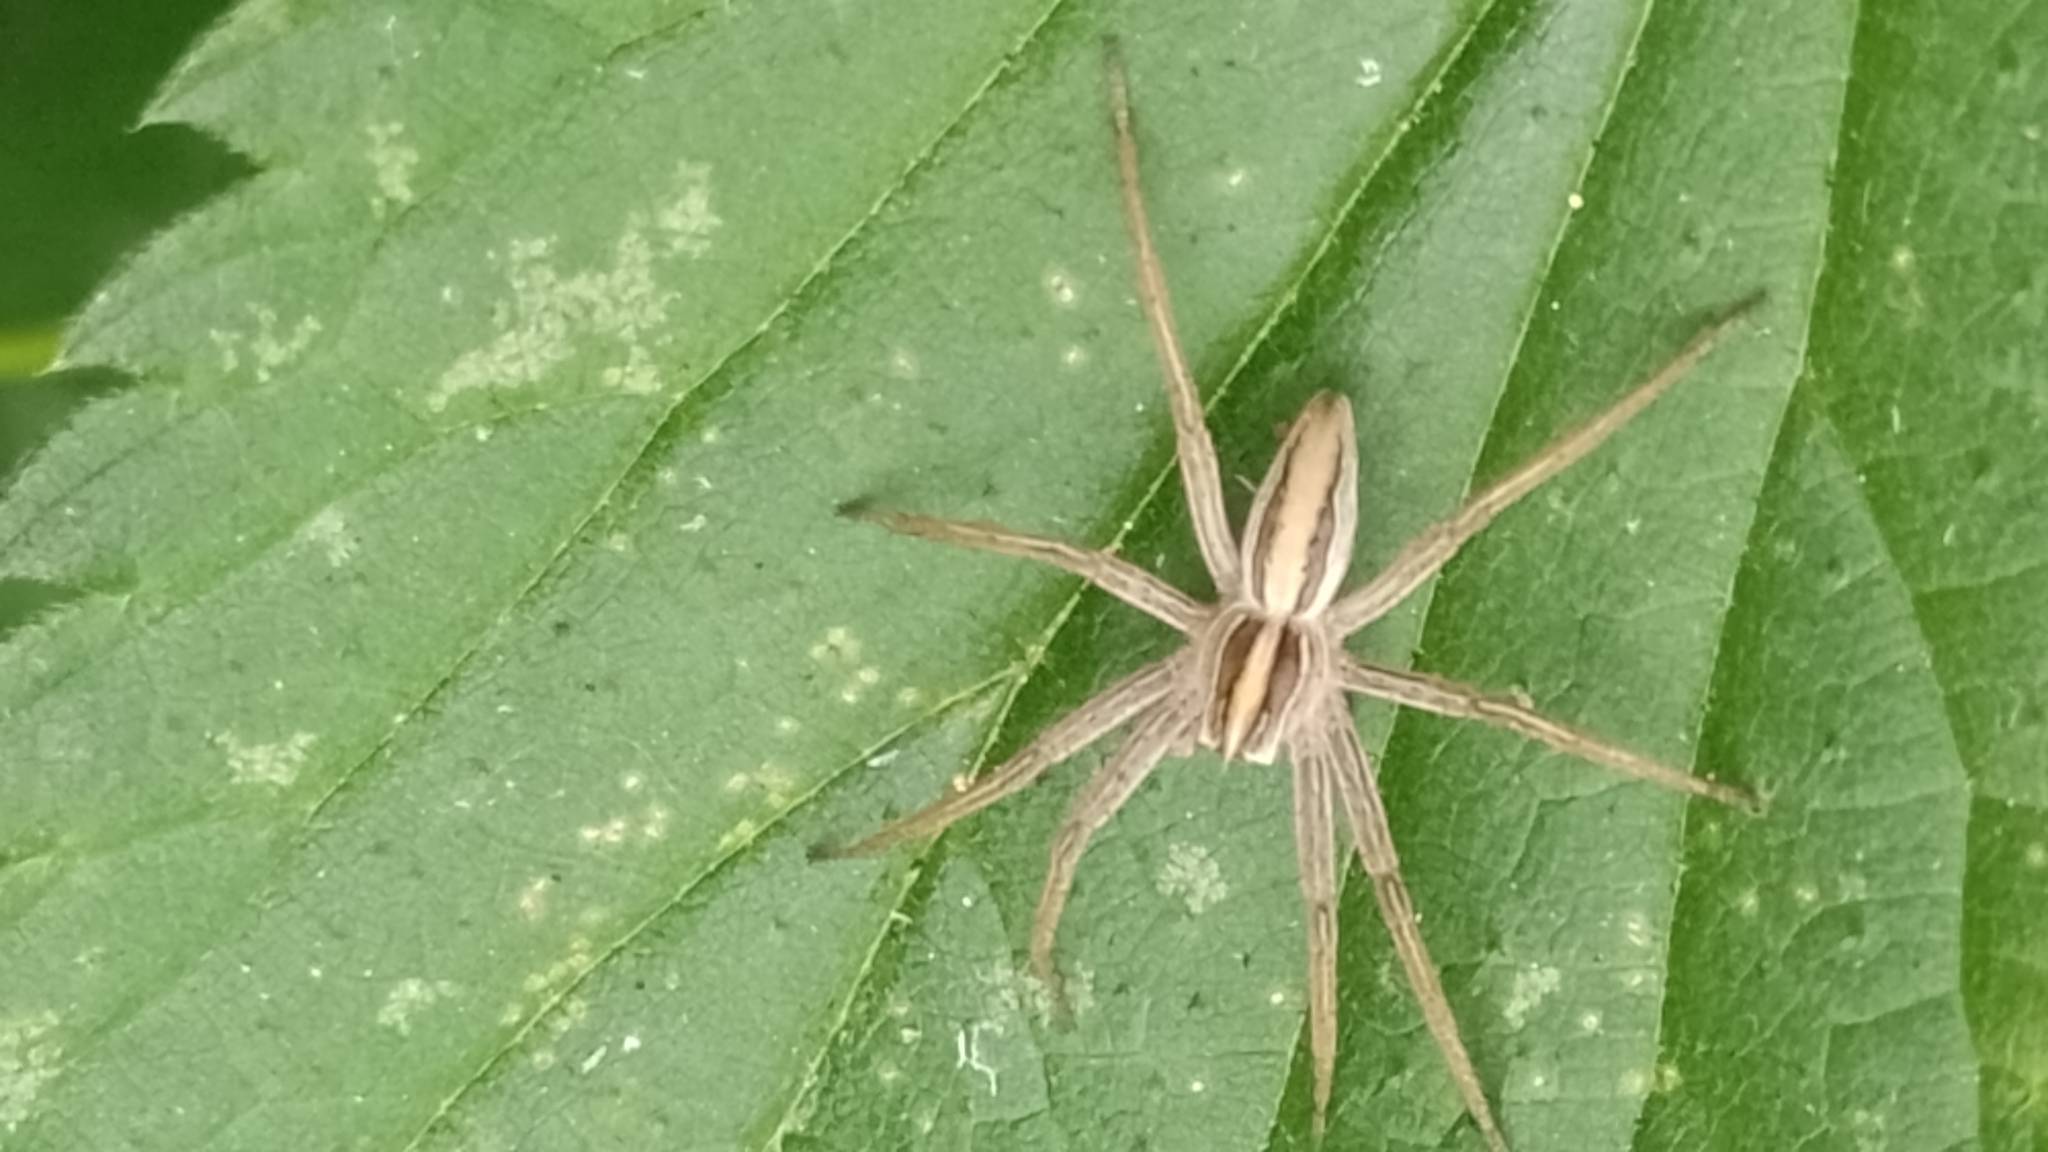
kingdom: Animalia
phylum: Arthropoda
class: Arachnida
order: Araneae
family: Pisauridae
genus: Pisaura
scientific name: Pisaura mirabilis
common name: Tent spider
